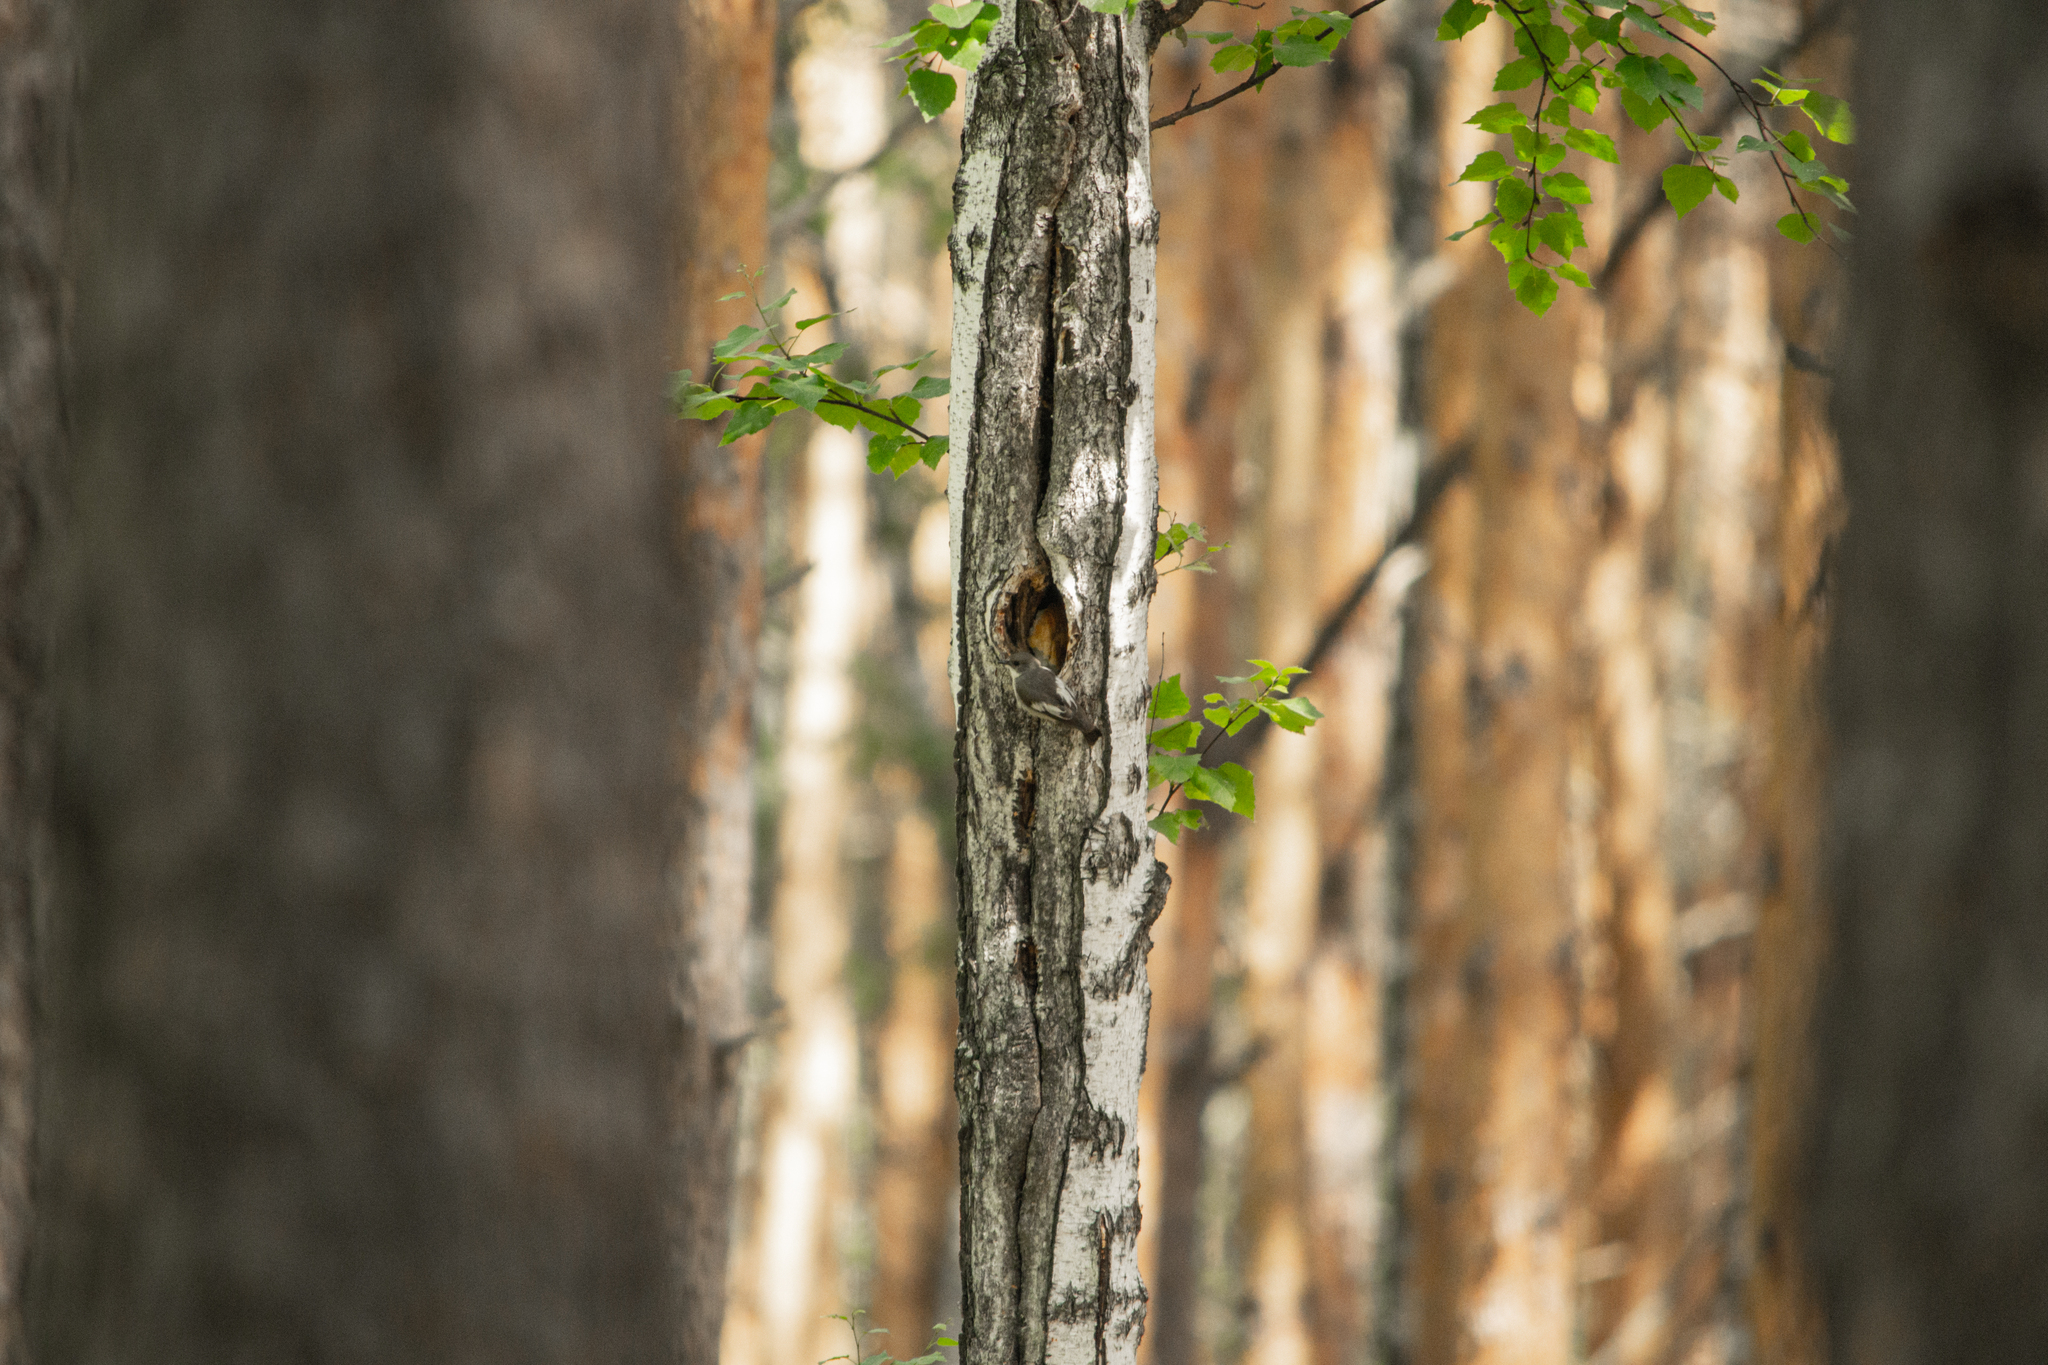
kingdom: Animalia
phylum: Chordata
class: Aves
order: Passeriformes
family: Muscicapidae
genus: Ficedula
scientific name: Ficedula hypoleuca
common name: European pied flycatcher
